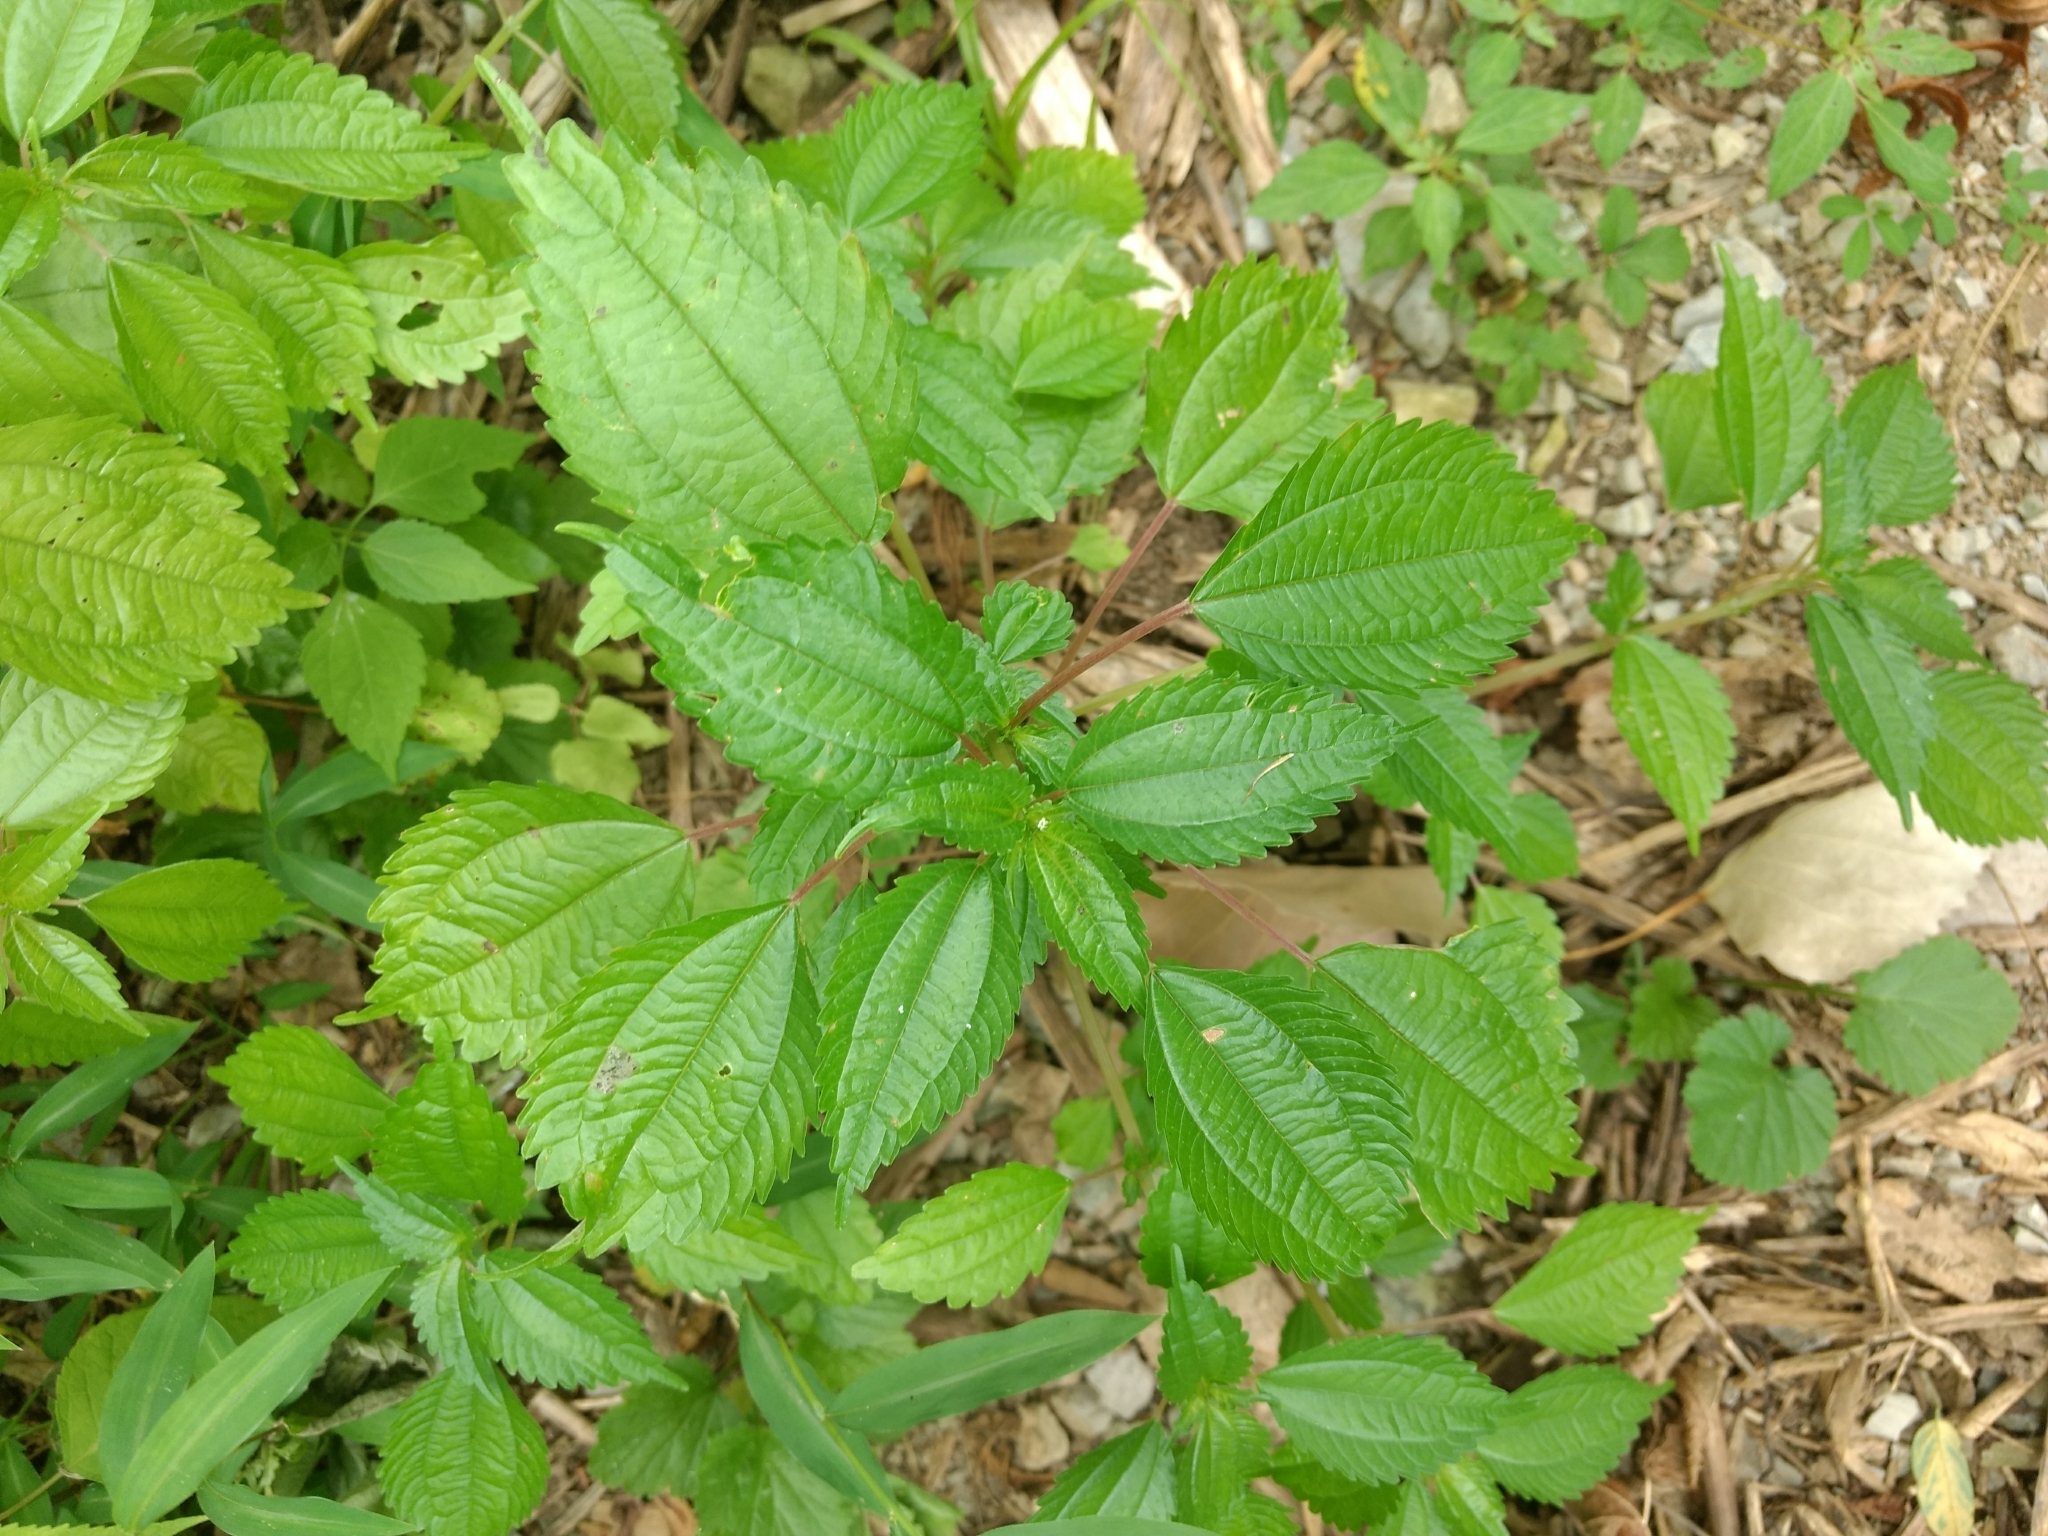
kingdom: Plantae
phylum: Tracheophyta
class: Magnoliopsida
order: Rosales
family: Urticaceae
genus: Pilea
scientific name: Pilea pumila
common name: Clearweed
